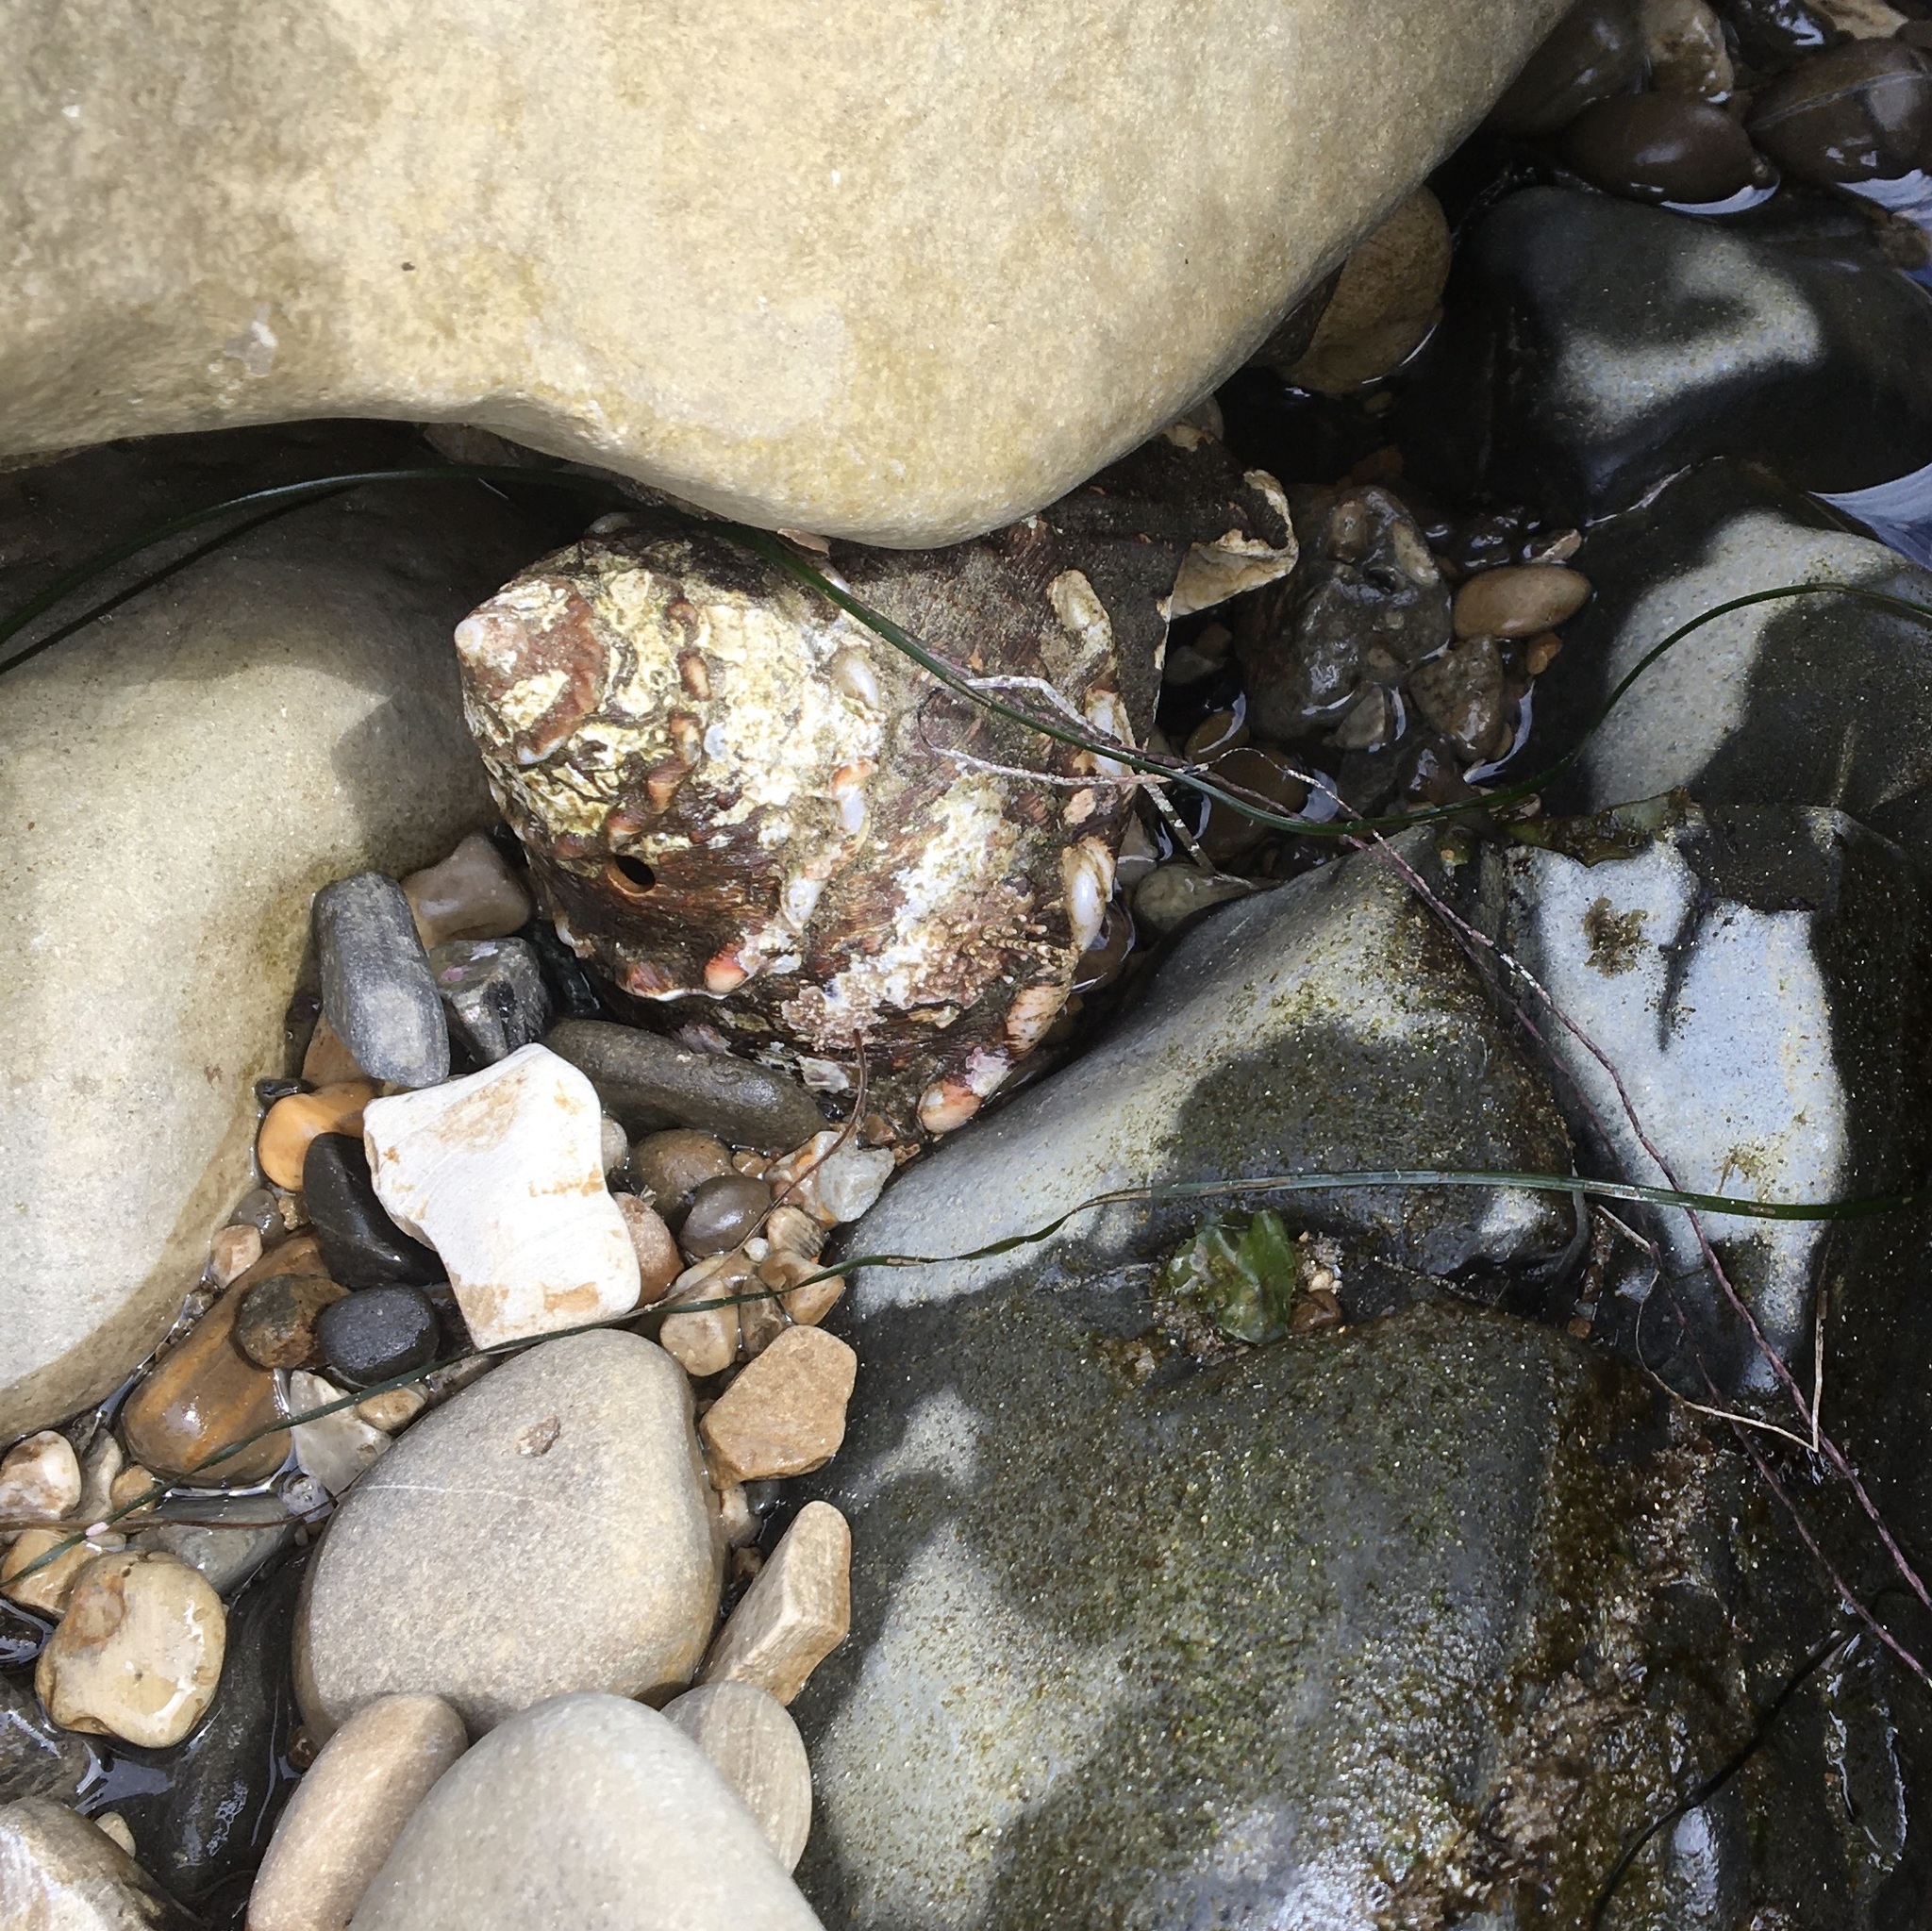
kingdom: Animalia
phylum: Mollusca
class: Gastropoda
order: Trochida
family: Turbinidae
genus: Megastraea
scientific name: Megastraea undosa
